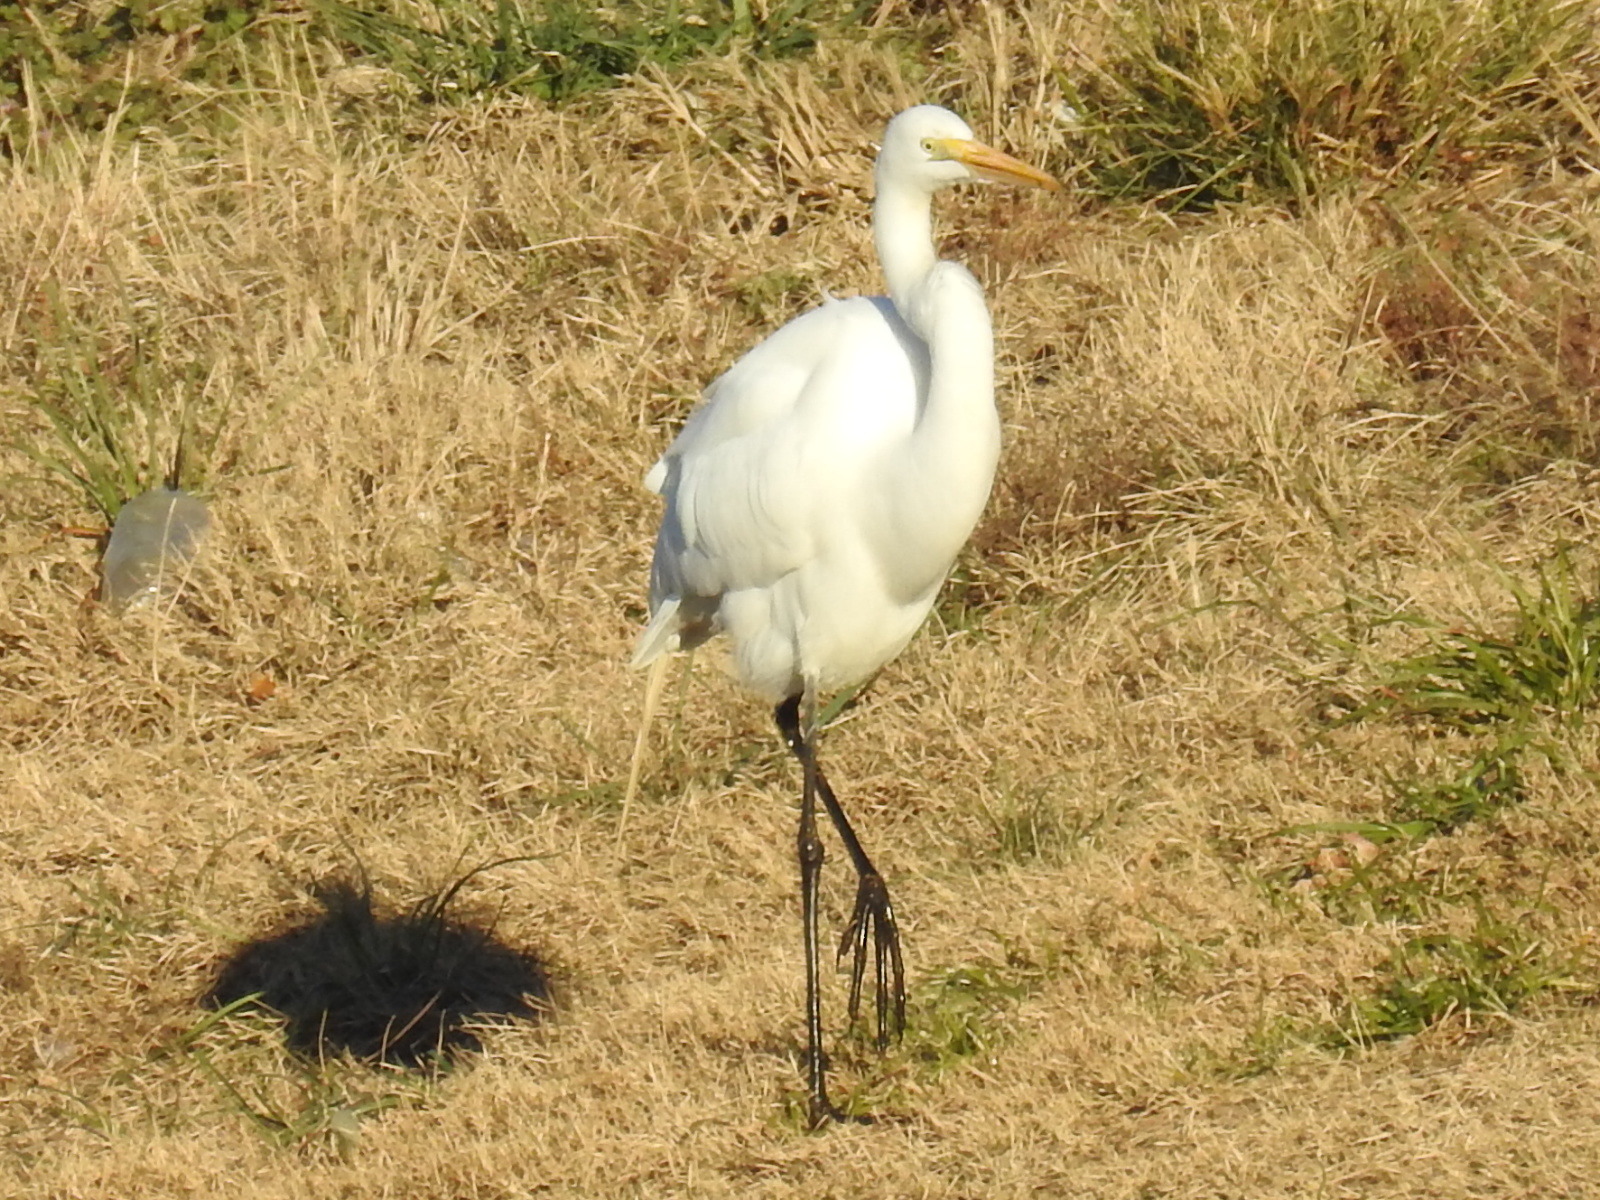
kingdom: Animalia
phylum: Chordata
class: Aves
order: Pelecaniformes
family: Ardeidae
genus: Ardea
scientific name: Ardea alba
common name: Great egret
